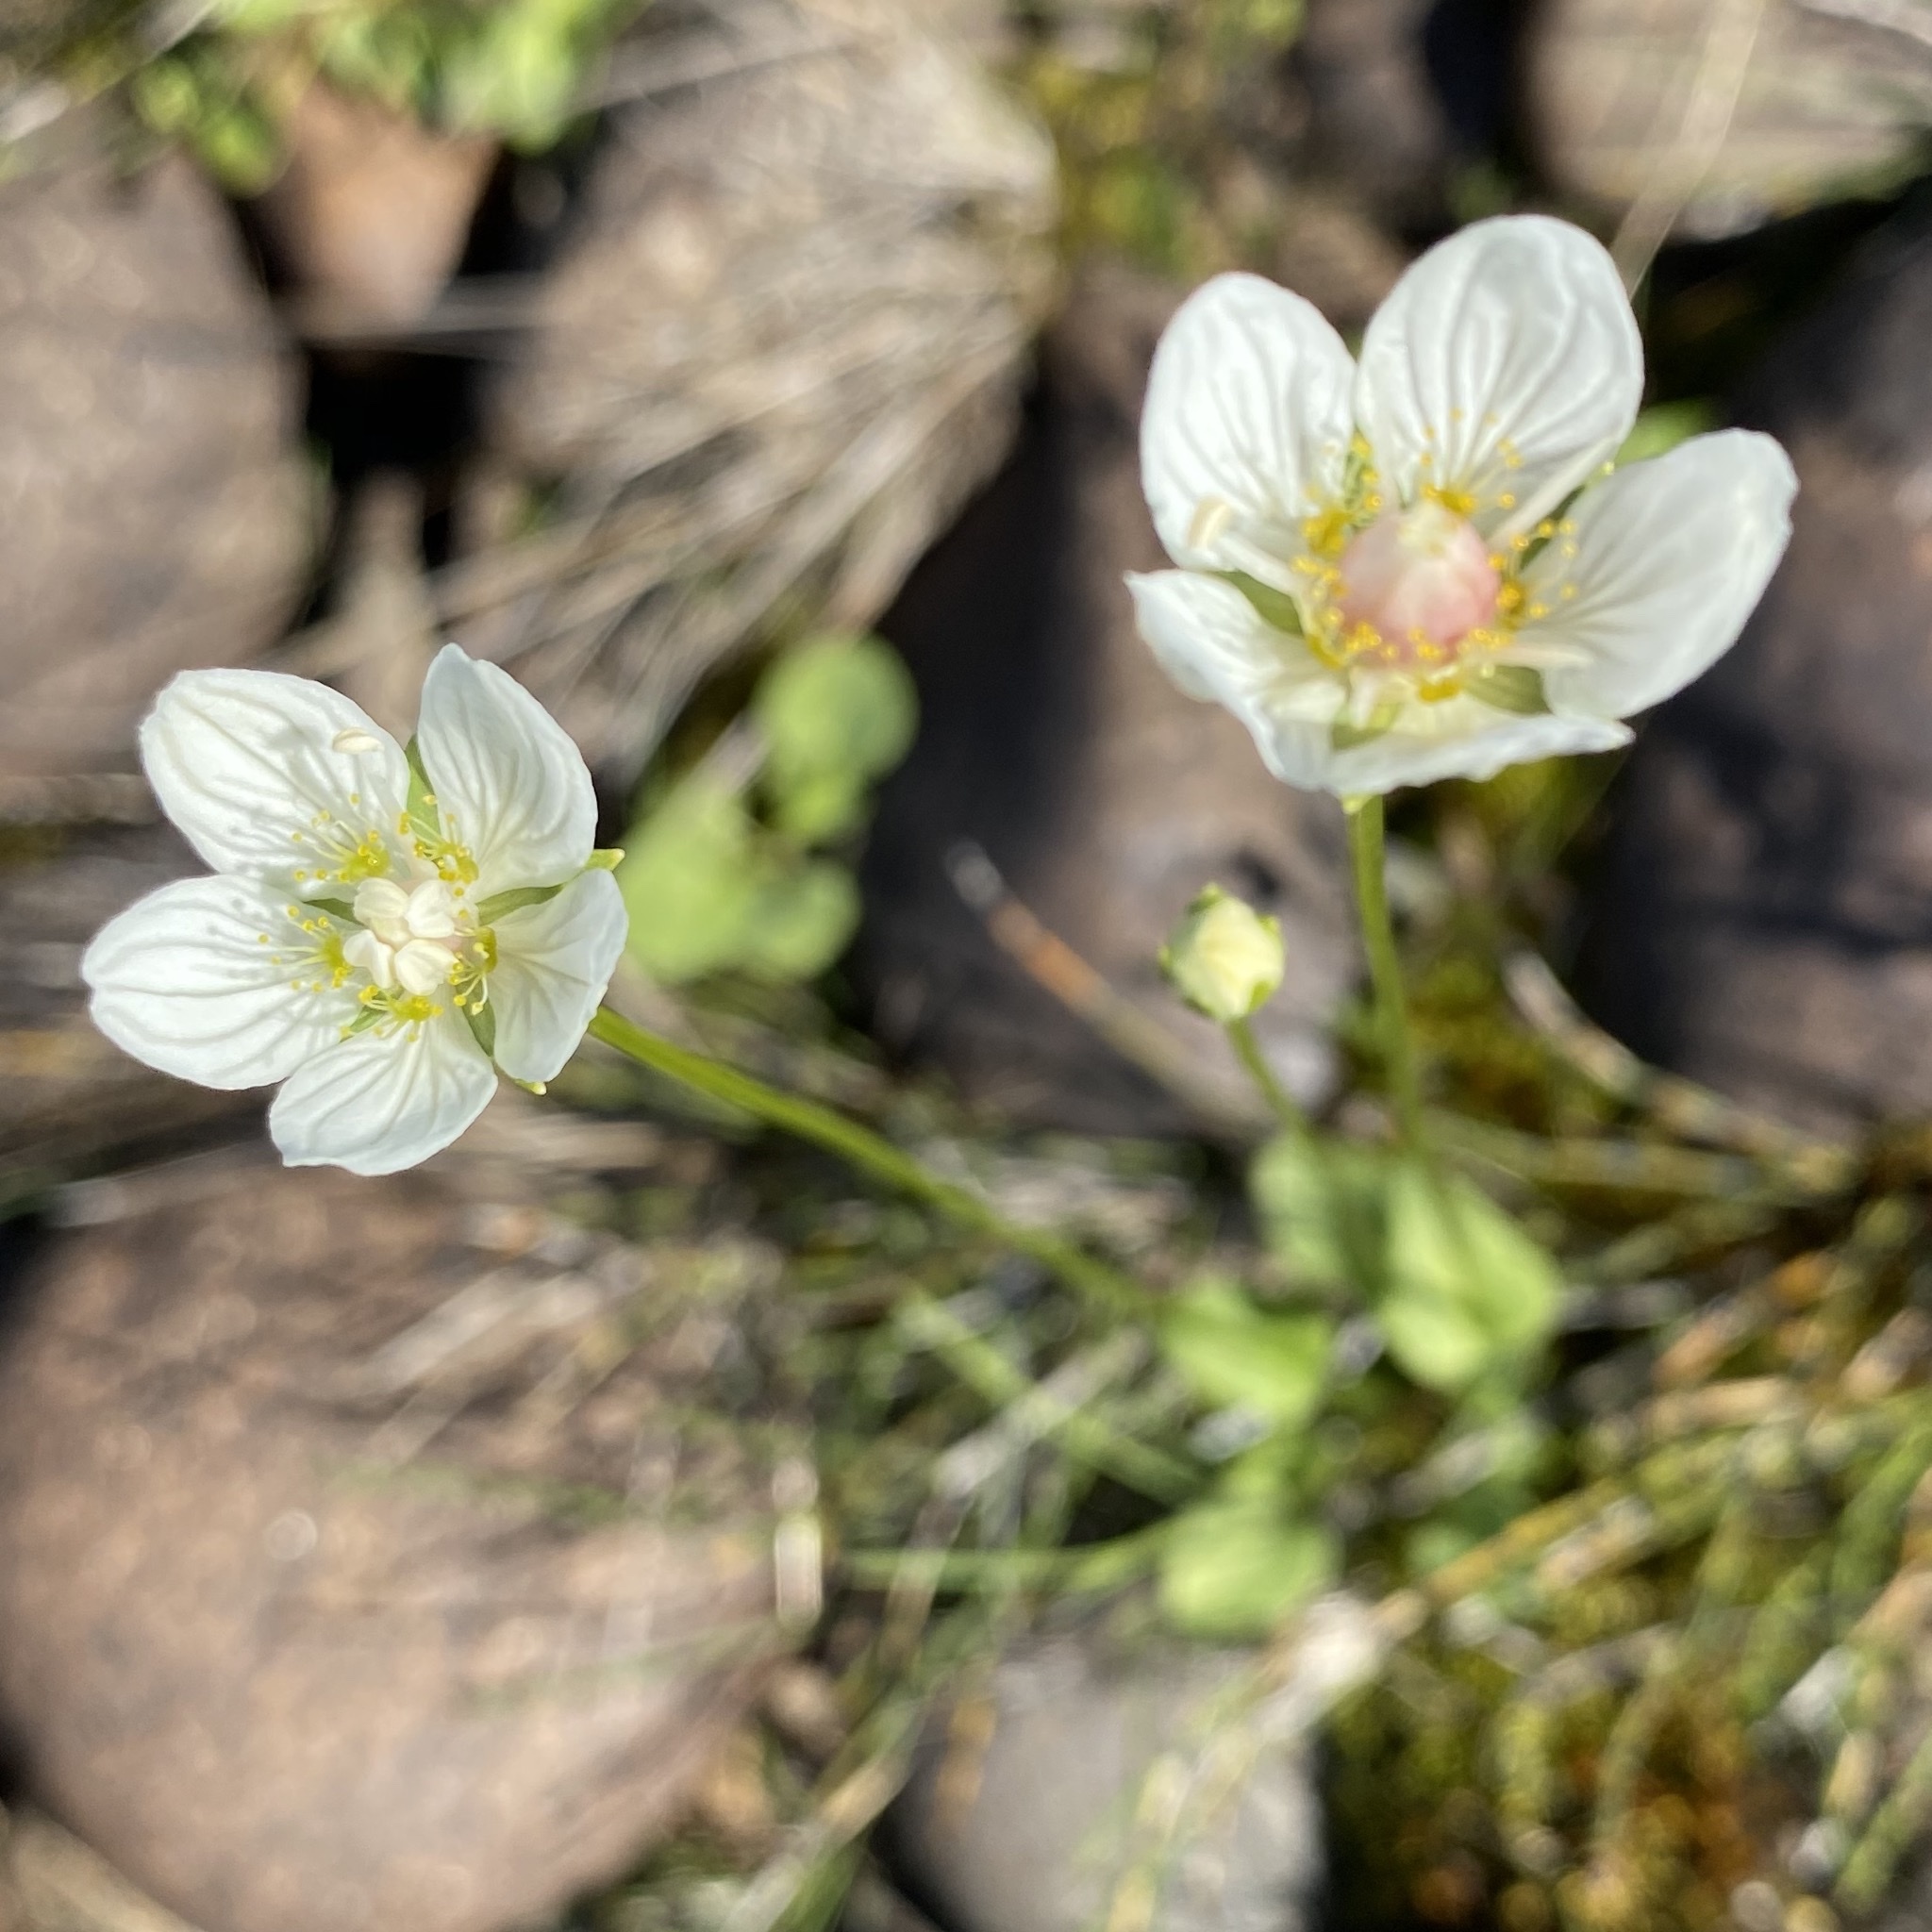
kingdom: Plantae
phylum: Tracheophyta
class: Magnoliopsida
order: Celastrales
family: Parnassiaceae
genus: Parnassia
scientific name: Parnassia palustris
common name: Grass-of-parnassus
